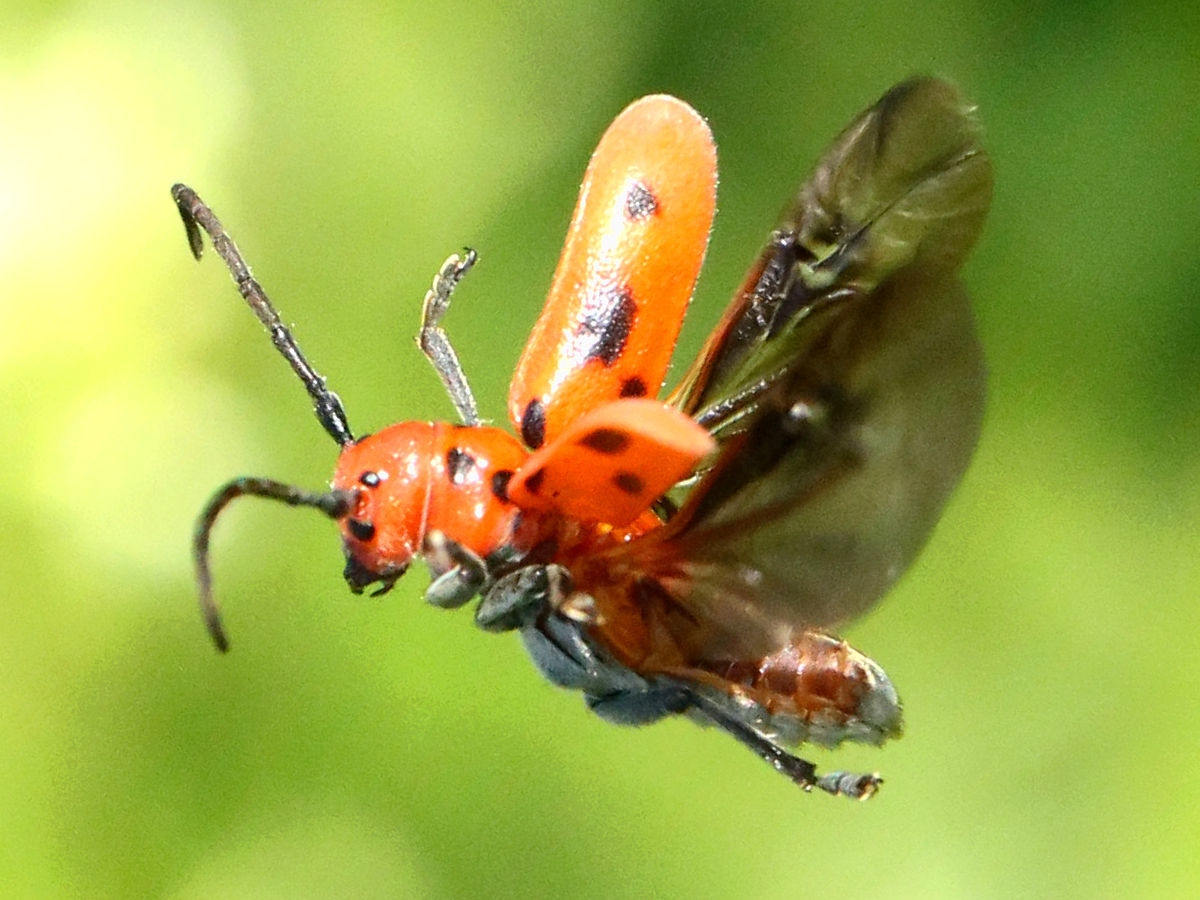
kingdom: Animalia
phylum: Arthropoda
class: Insecta
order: Coleoptera
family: Cerambycidae
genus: Tetraopes
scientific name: Tetraopes tetrophthalmus
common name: Red milkweed beetle
